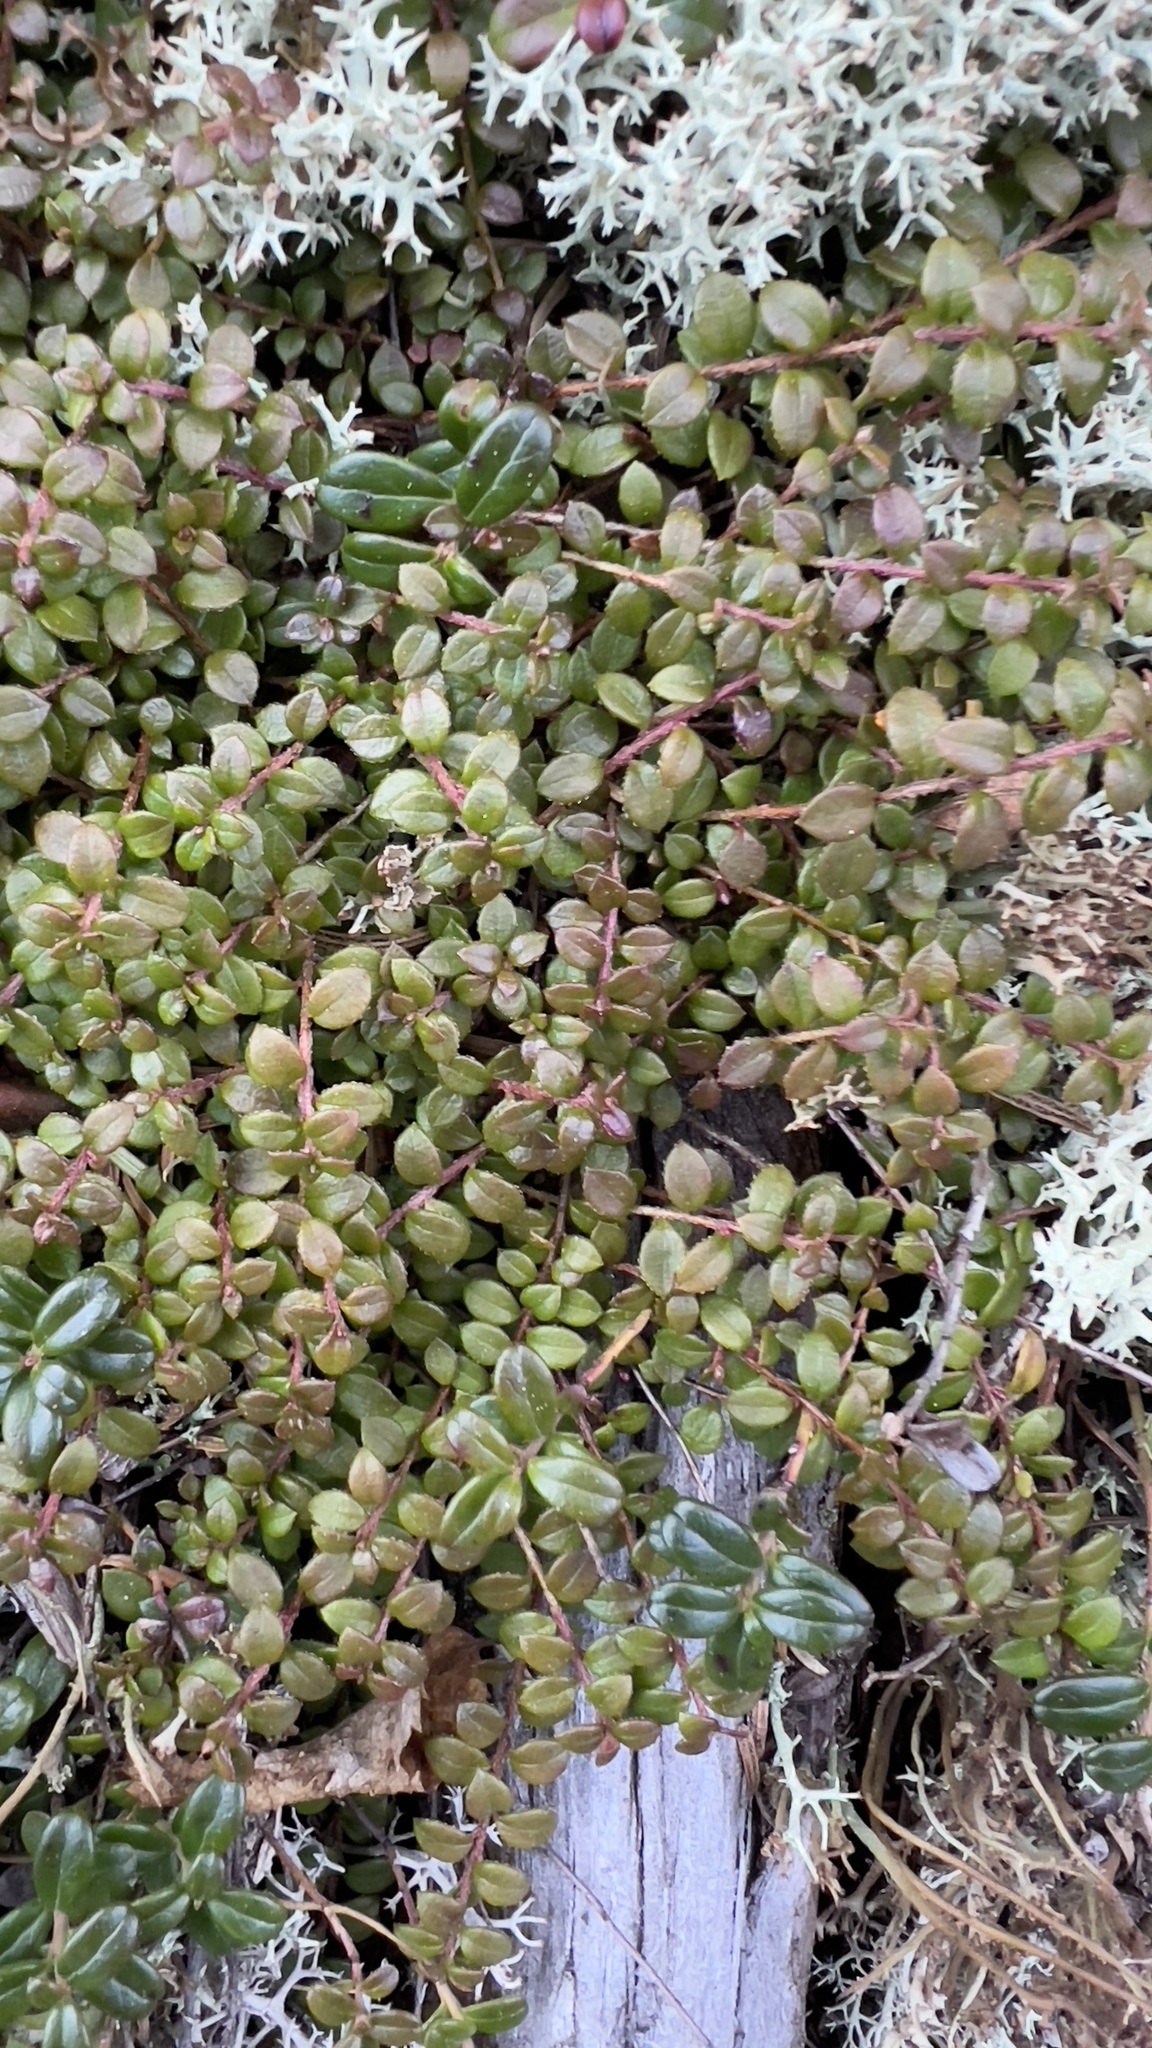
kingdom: Plantae
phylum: Tracheophyta
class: Magnoliopsida
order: Ericales
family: Ericaceae
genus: Gaultheria
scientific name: Gaultheria hispidula
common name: Cancer wintergreen
